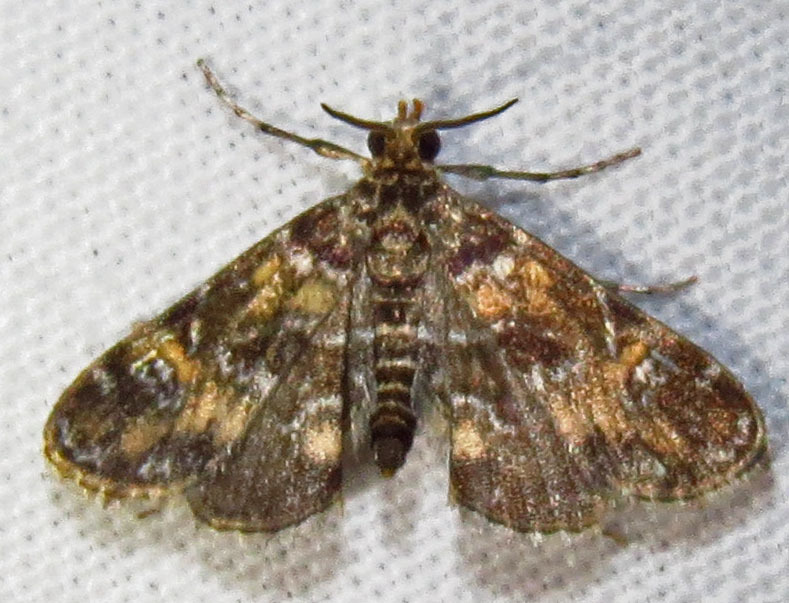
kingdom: Animalia
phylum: Arthropoda
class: Insecta
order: Lepidoptera
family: Crambidae
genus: Elophila
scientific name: Elophila obliteralis
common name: Waterlily leafcutter moth
